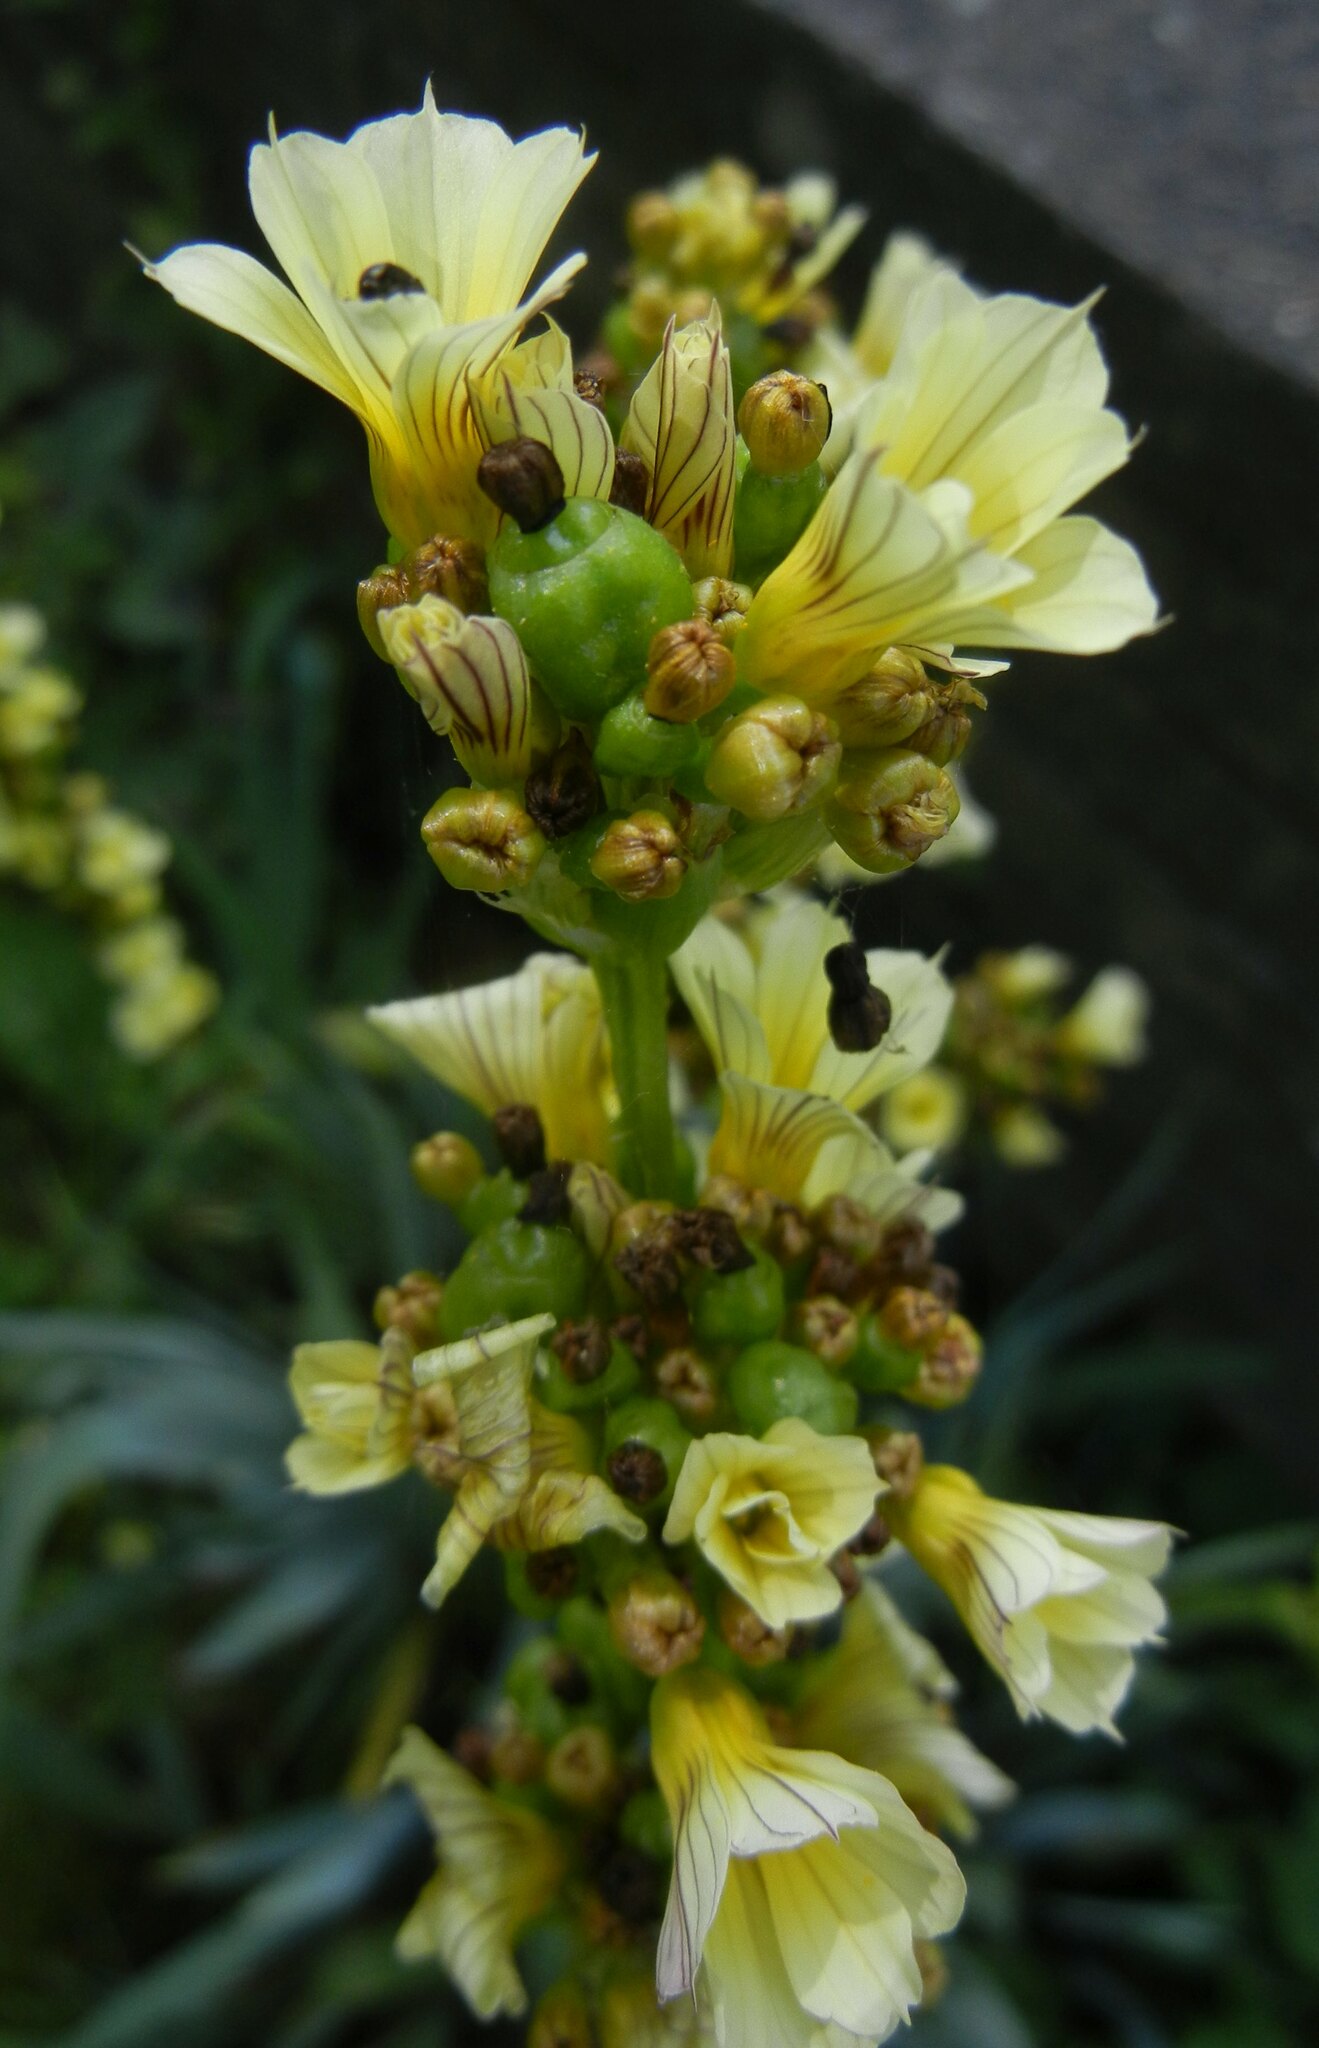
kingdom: Plantae
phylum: Tracheophyta
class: Liliopsida
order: Asparagales
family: Iridaceae
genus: Sisyrinchium
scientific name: Sisyrinchium striatum
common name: Pale yellow-eyed-grass
